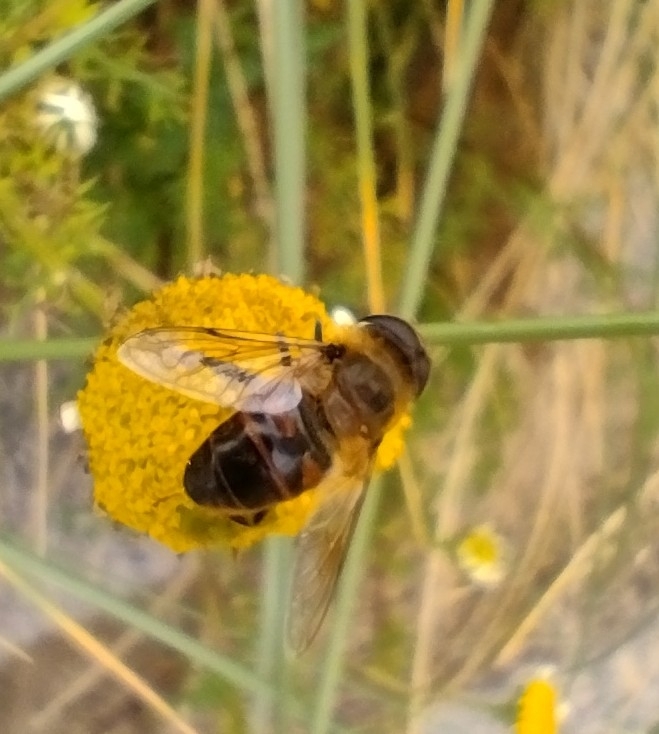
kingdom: Animalia
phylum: Arthropoda
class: Insecta
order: Diptera
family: Syrphidae
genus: Eristalis
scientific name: Eristalis tenax
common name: Drone fly
